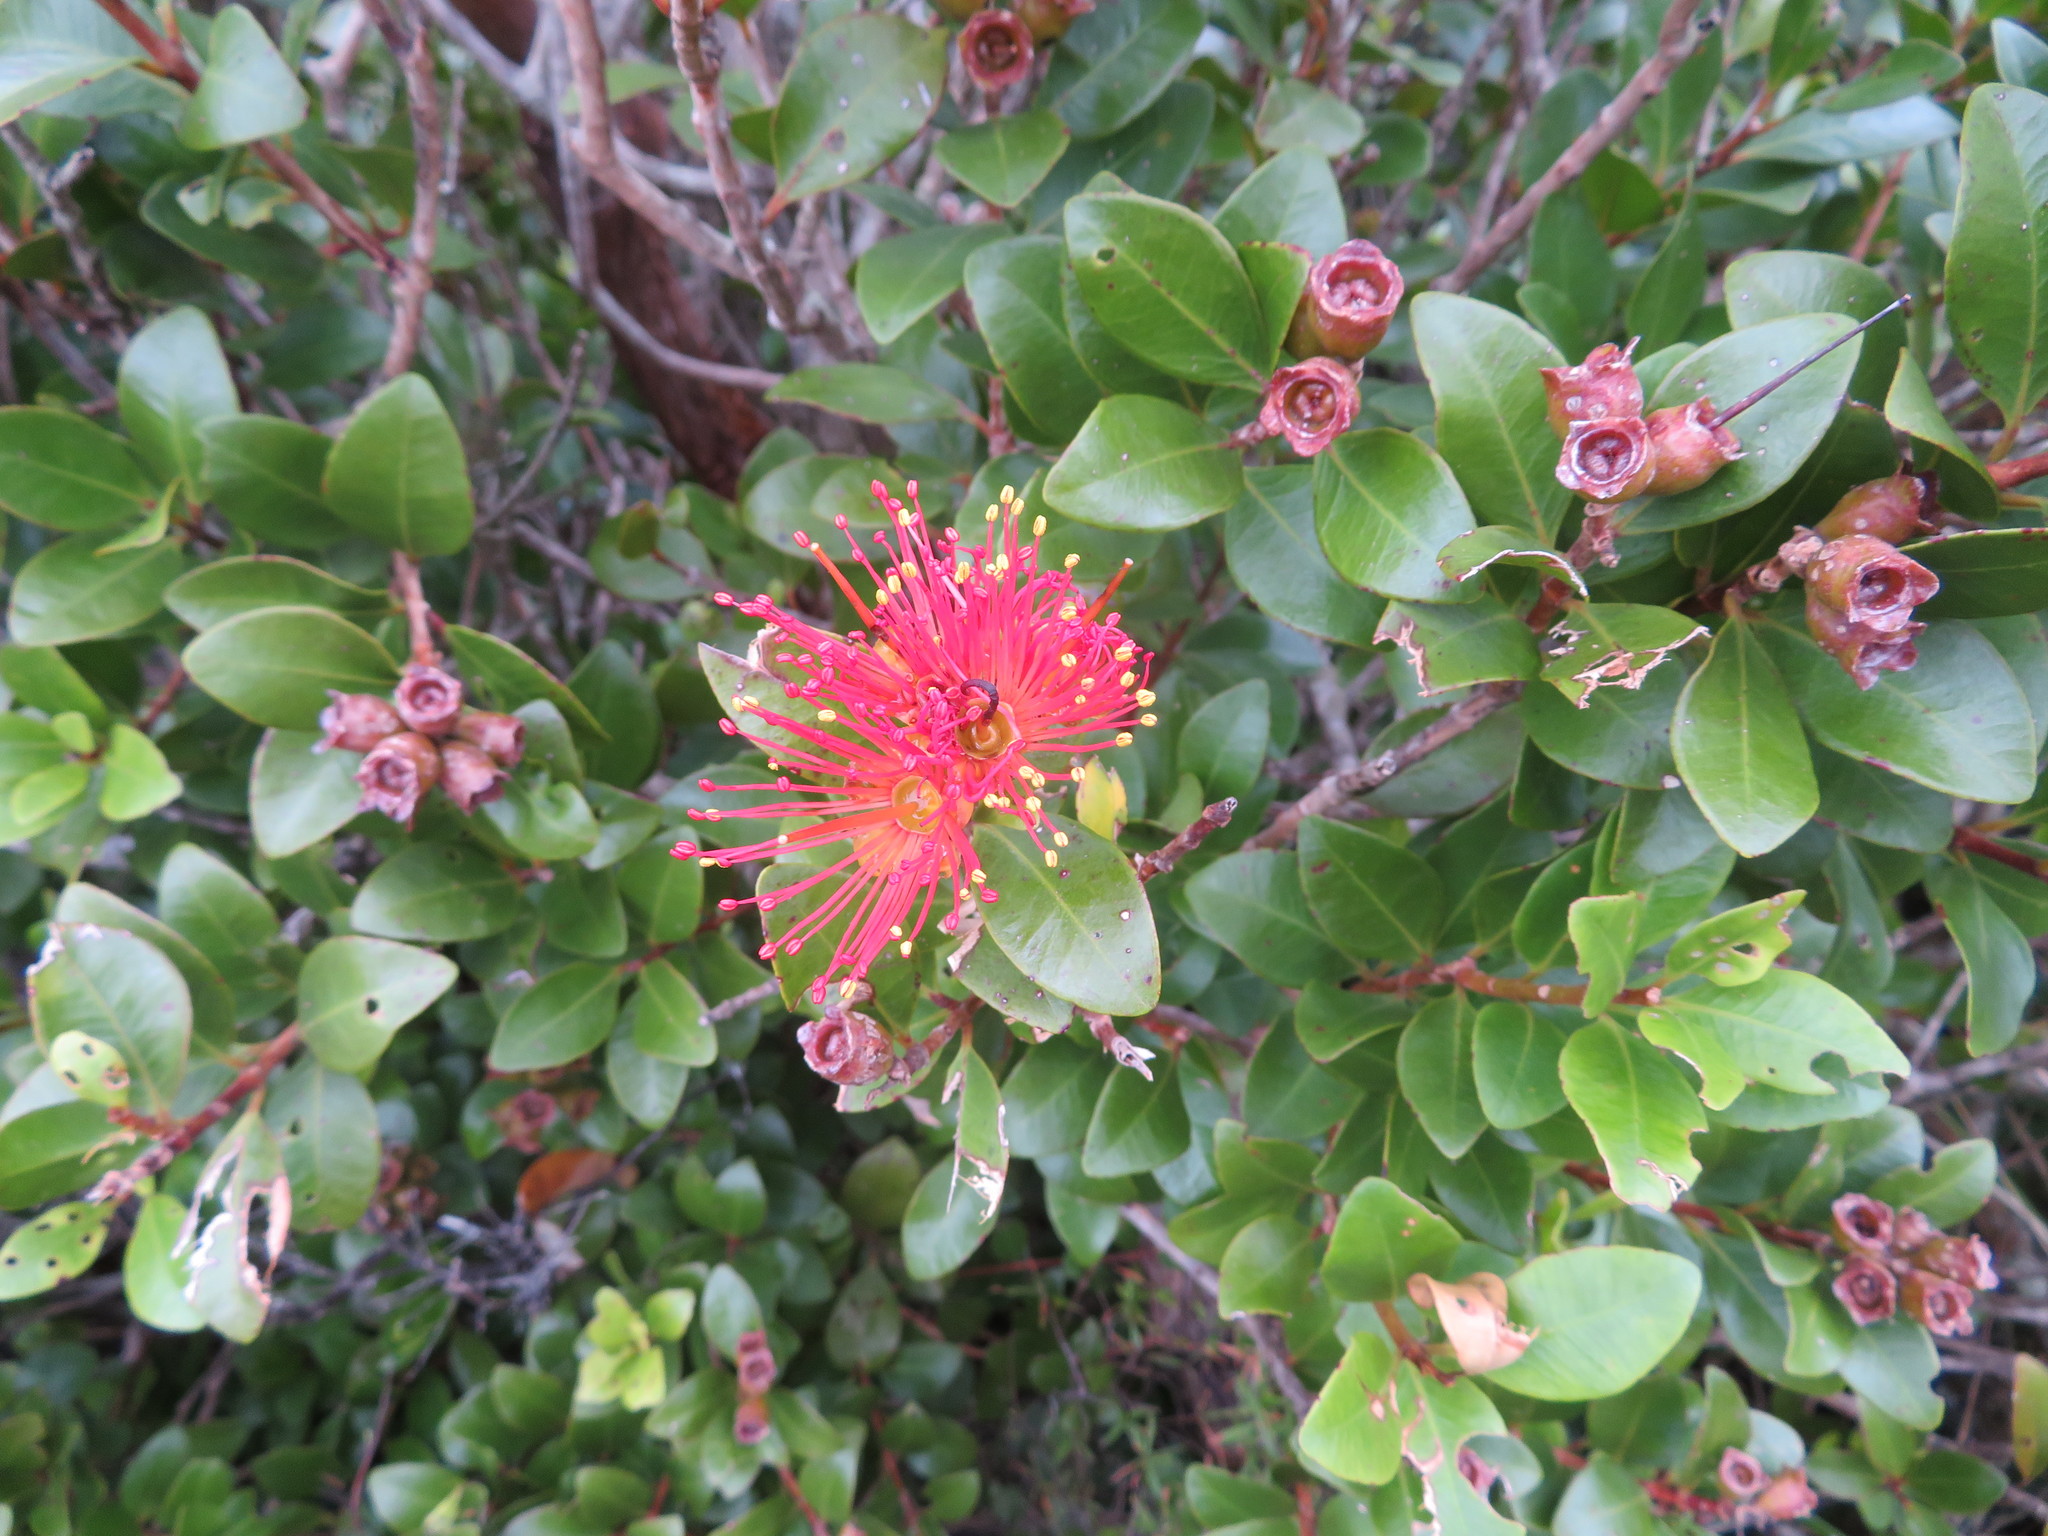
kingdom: Plantae
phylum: Tracheophyta
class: Magnoliopsida
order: Myrtales
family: Myrtaceae
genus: Metrosideros
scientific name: Metrosideros fulgens
